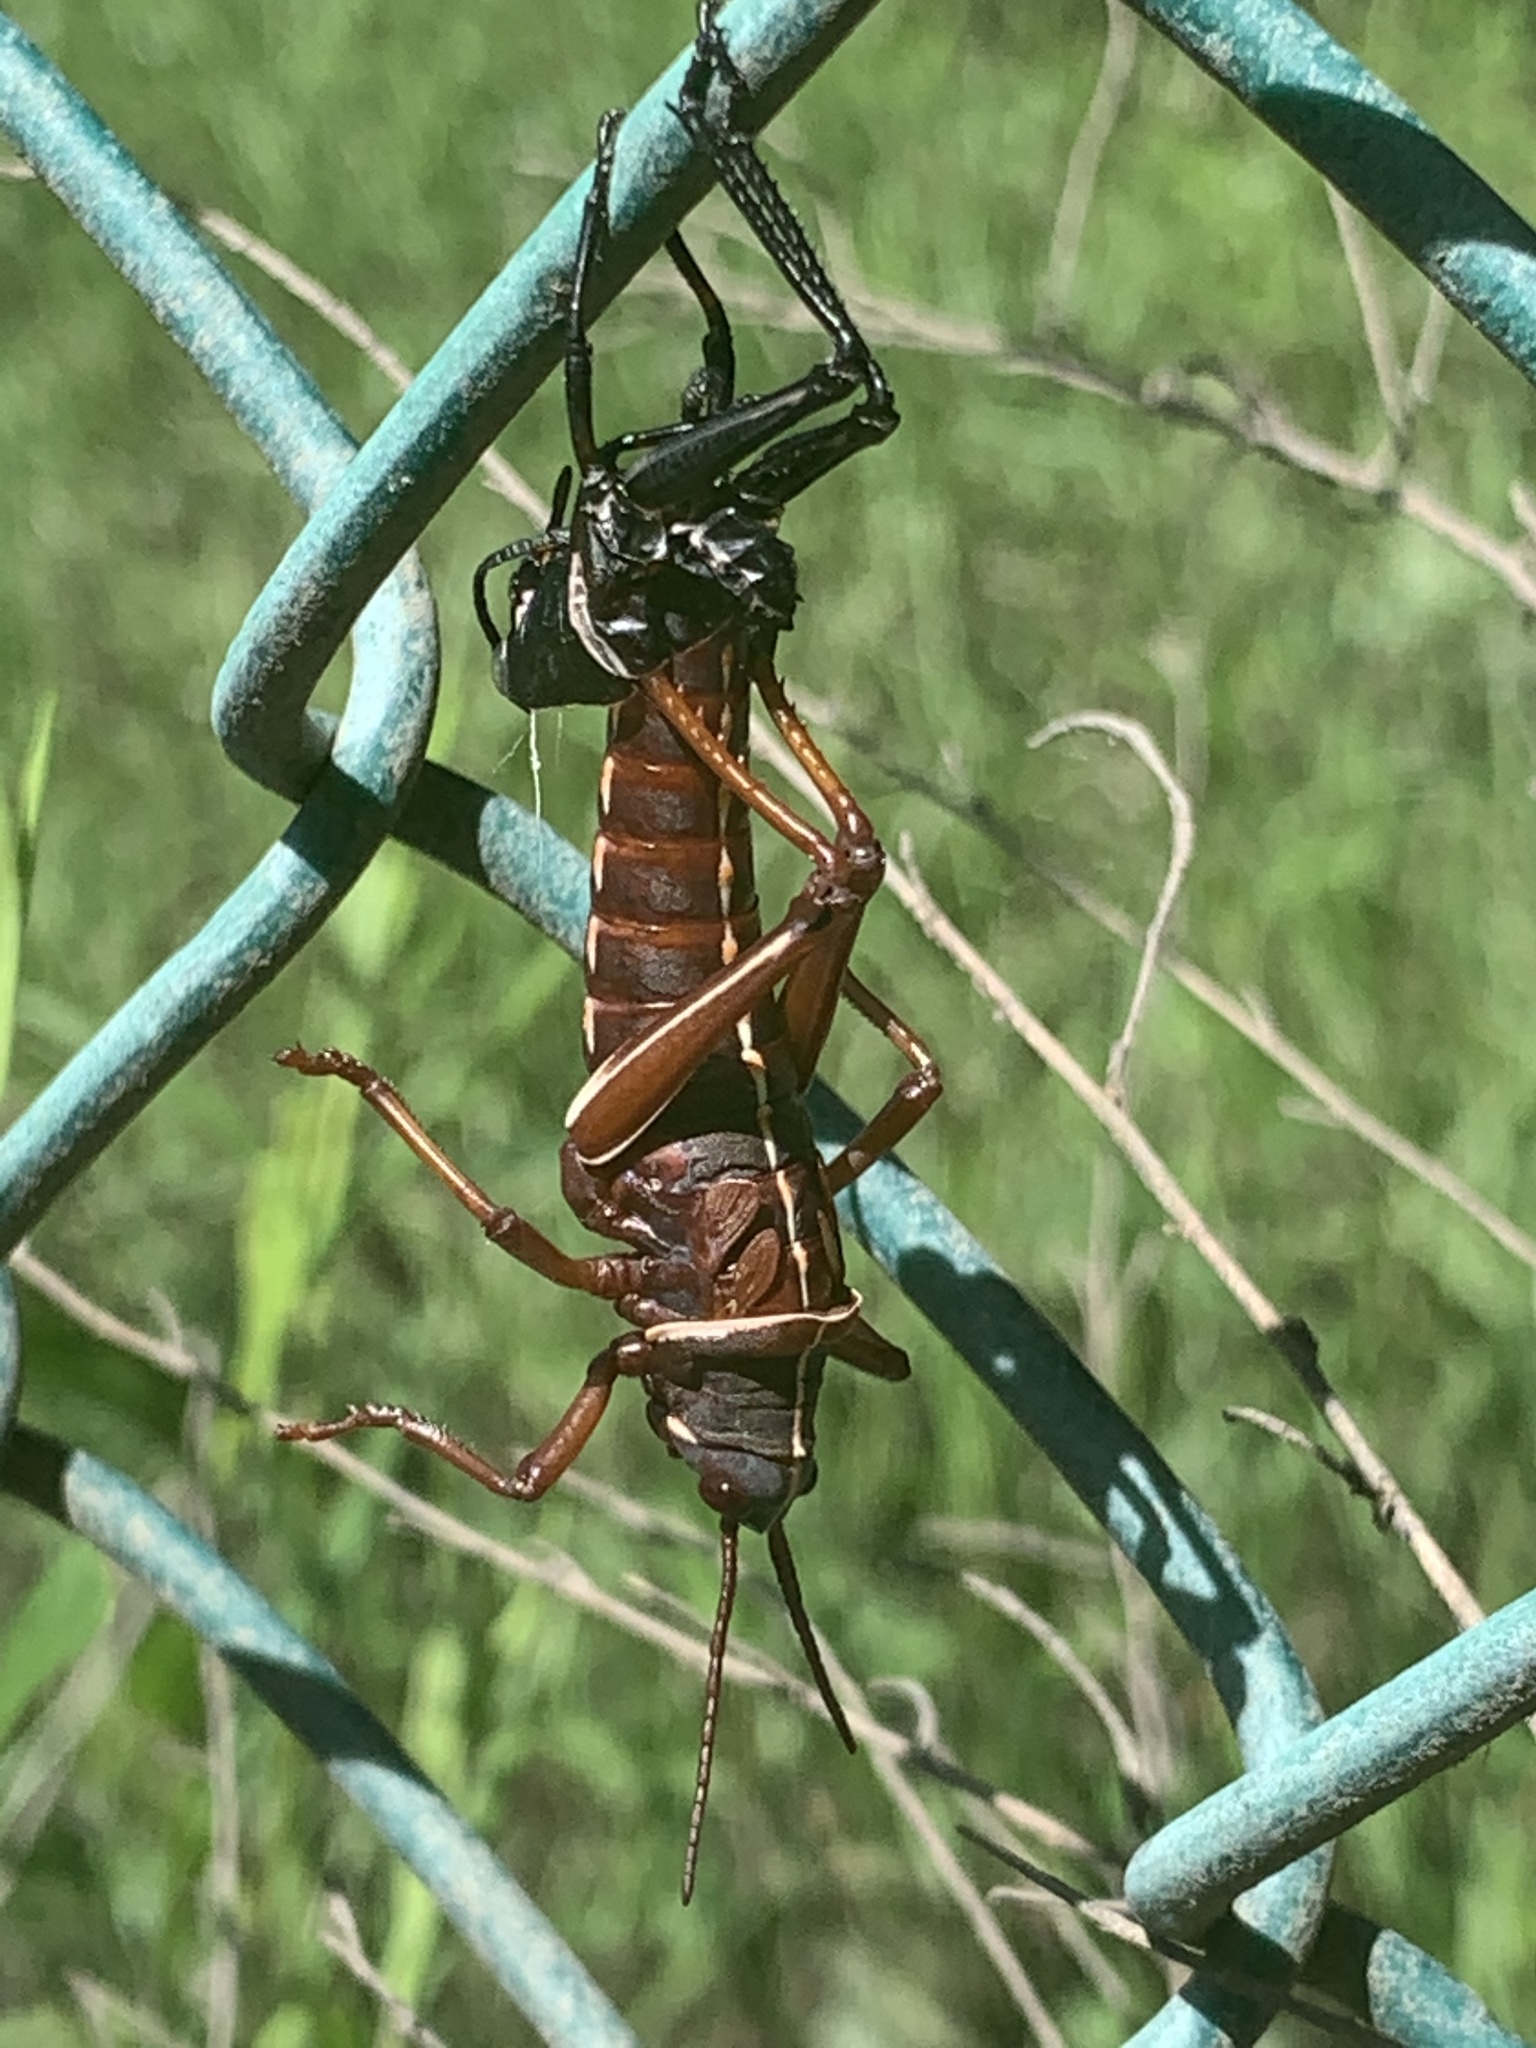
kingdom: Animalia
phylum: Arthropoda
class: Insecta
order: Orthoptera
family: Romaleidae
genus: Romalea
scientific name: Romalea microptera
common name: Eastern lubber grasshopper
